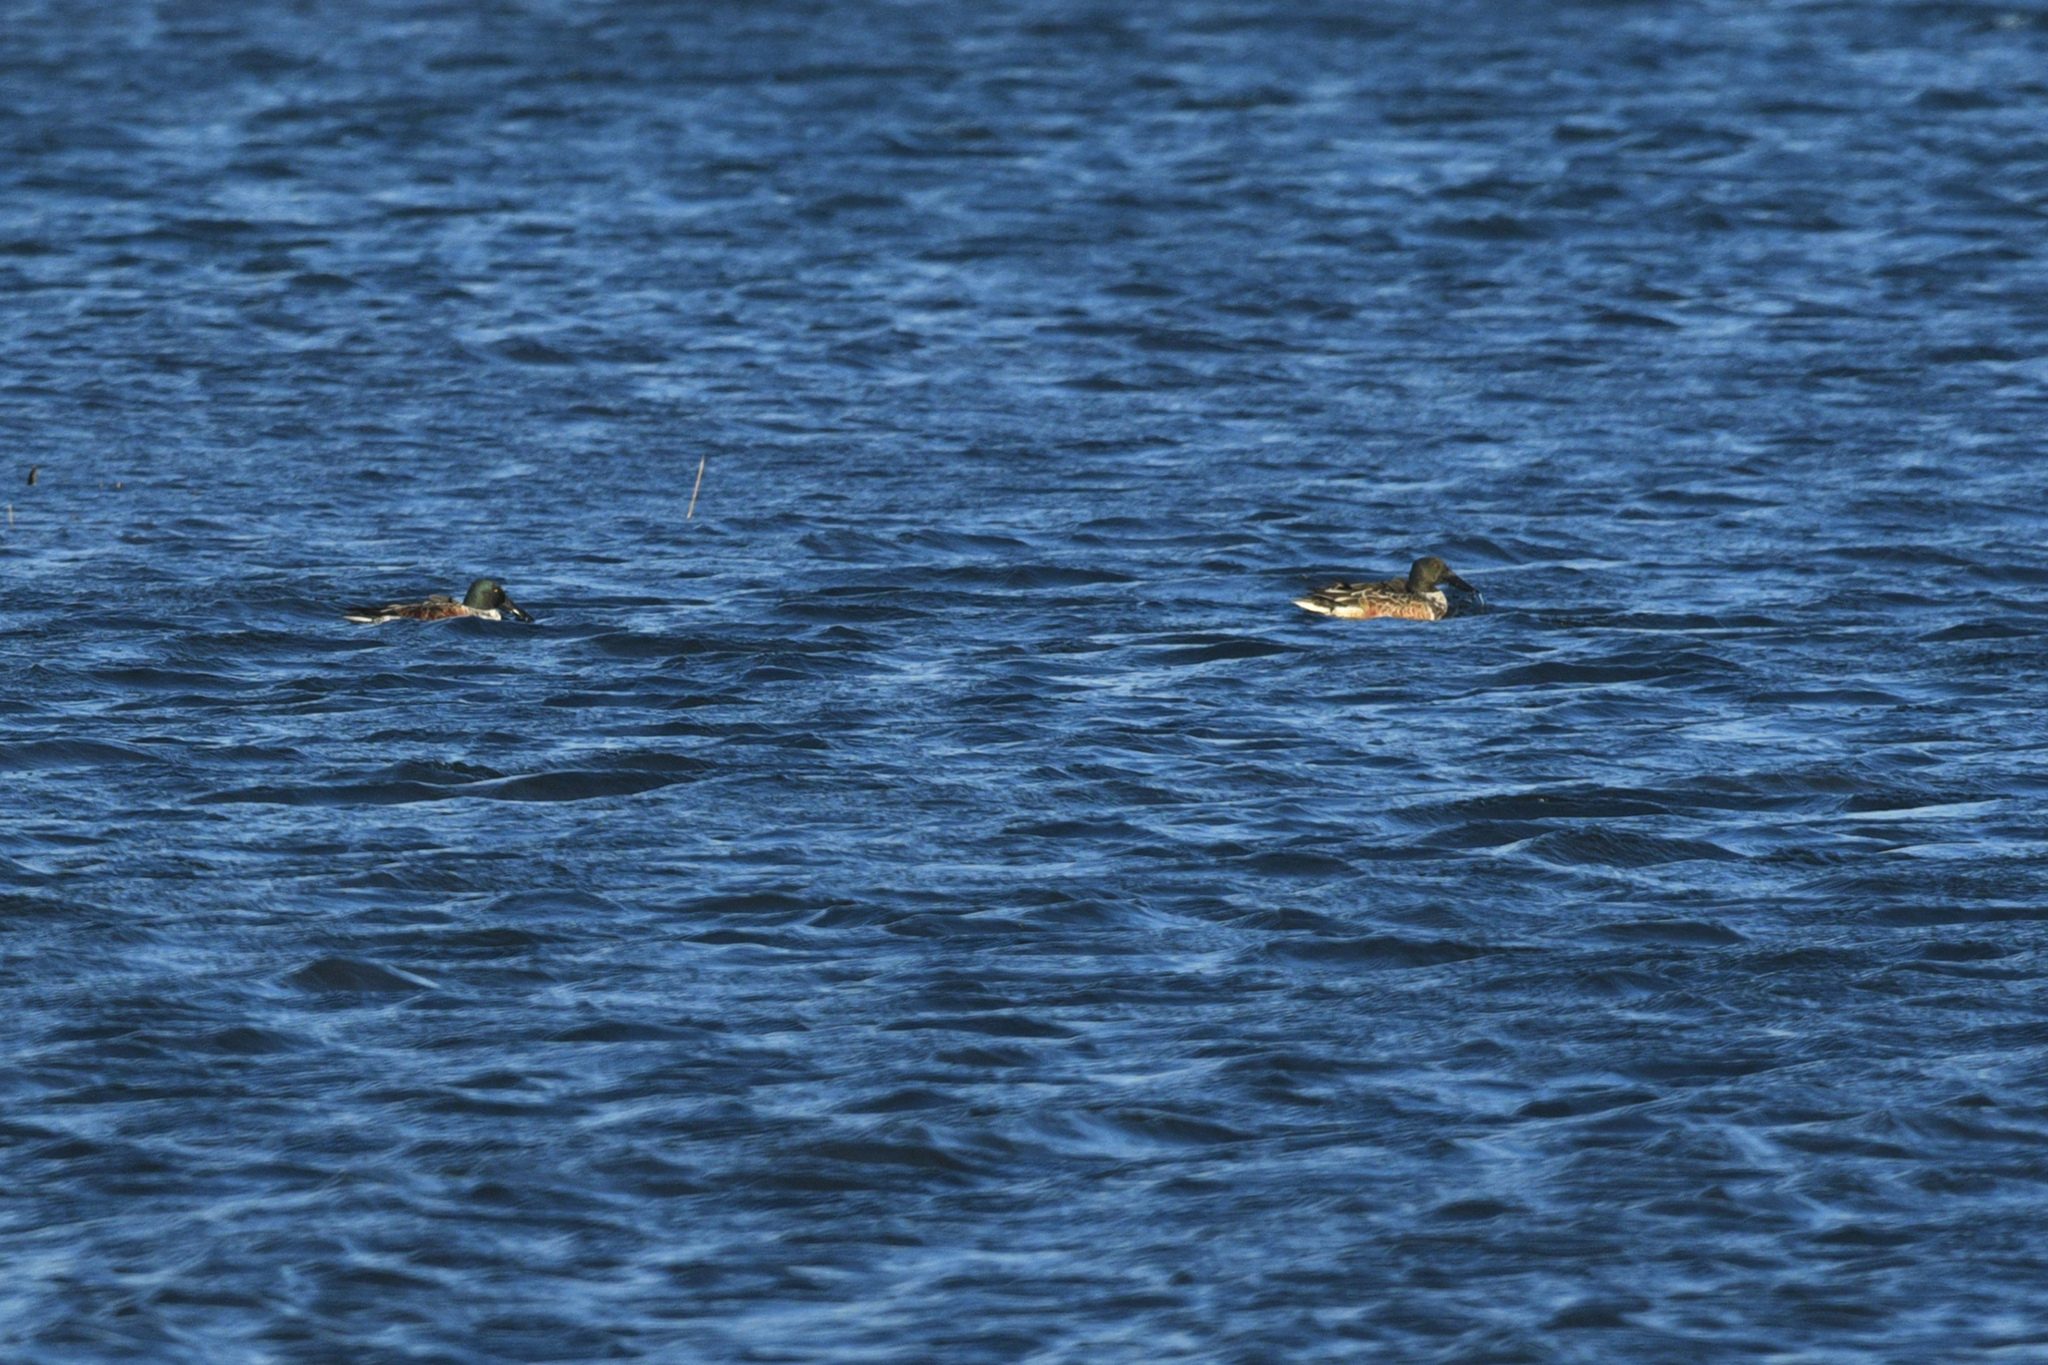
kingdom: Animalia
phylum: Chordata
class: Aves
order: Anseriformes
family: Anatidae
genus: Spatula
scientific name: Spatula clypeata
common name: Northern shoveler
